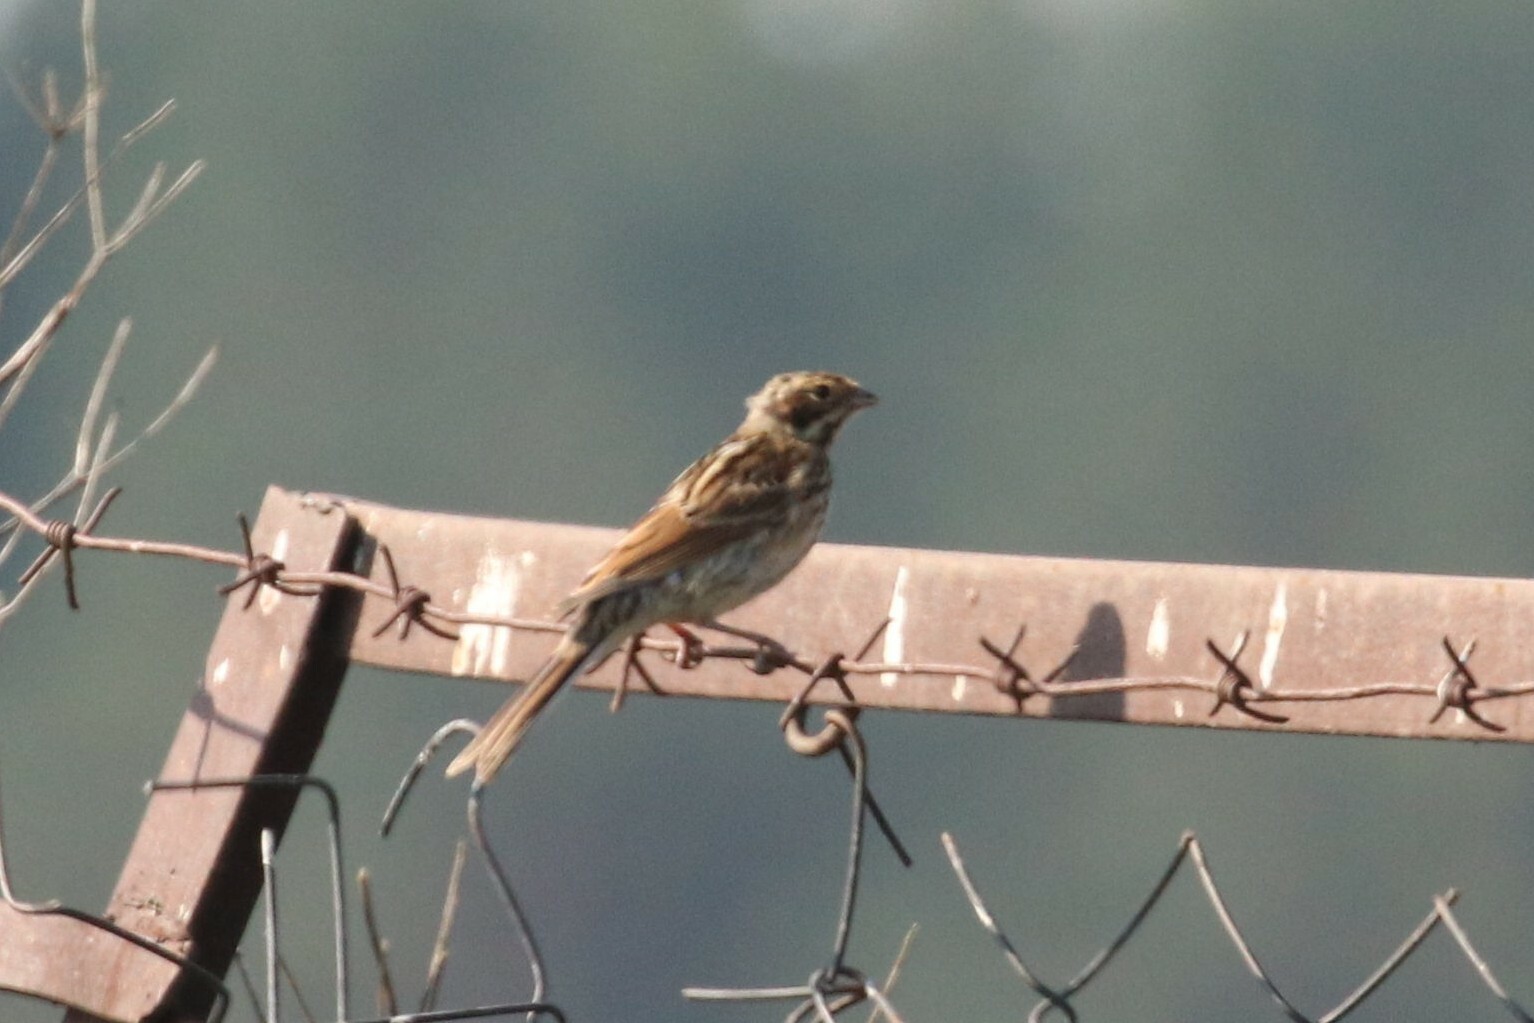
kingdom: Animalia
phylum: Chordata
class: Aves
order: Passeriformes
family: Emberizidae
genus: Emberiza
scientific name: Emberiza schoeniclus
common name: Reed bunting
